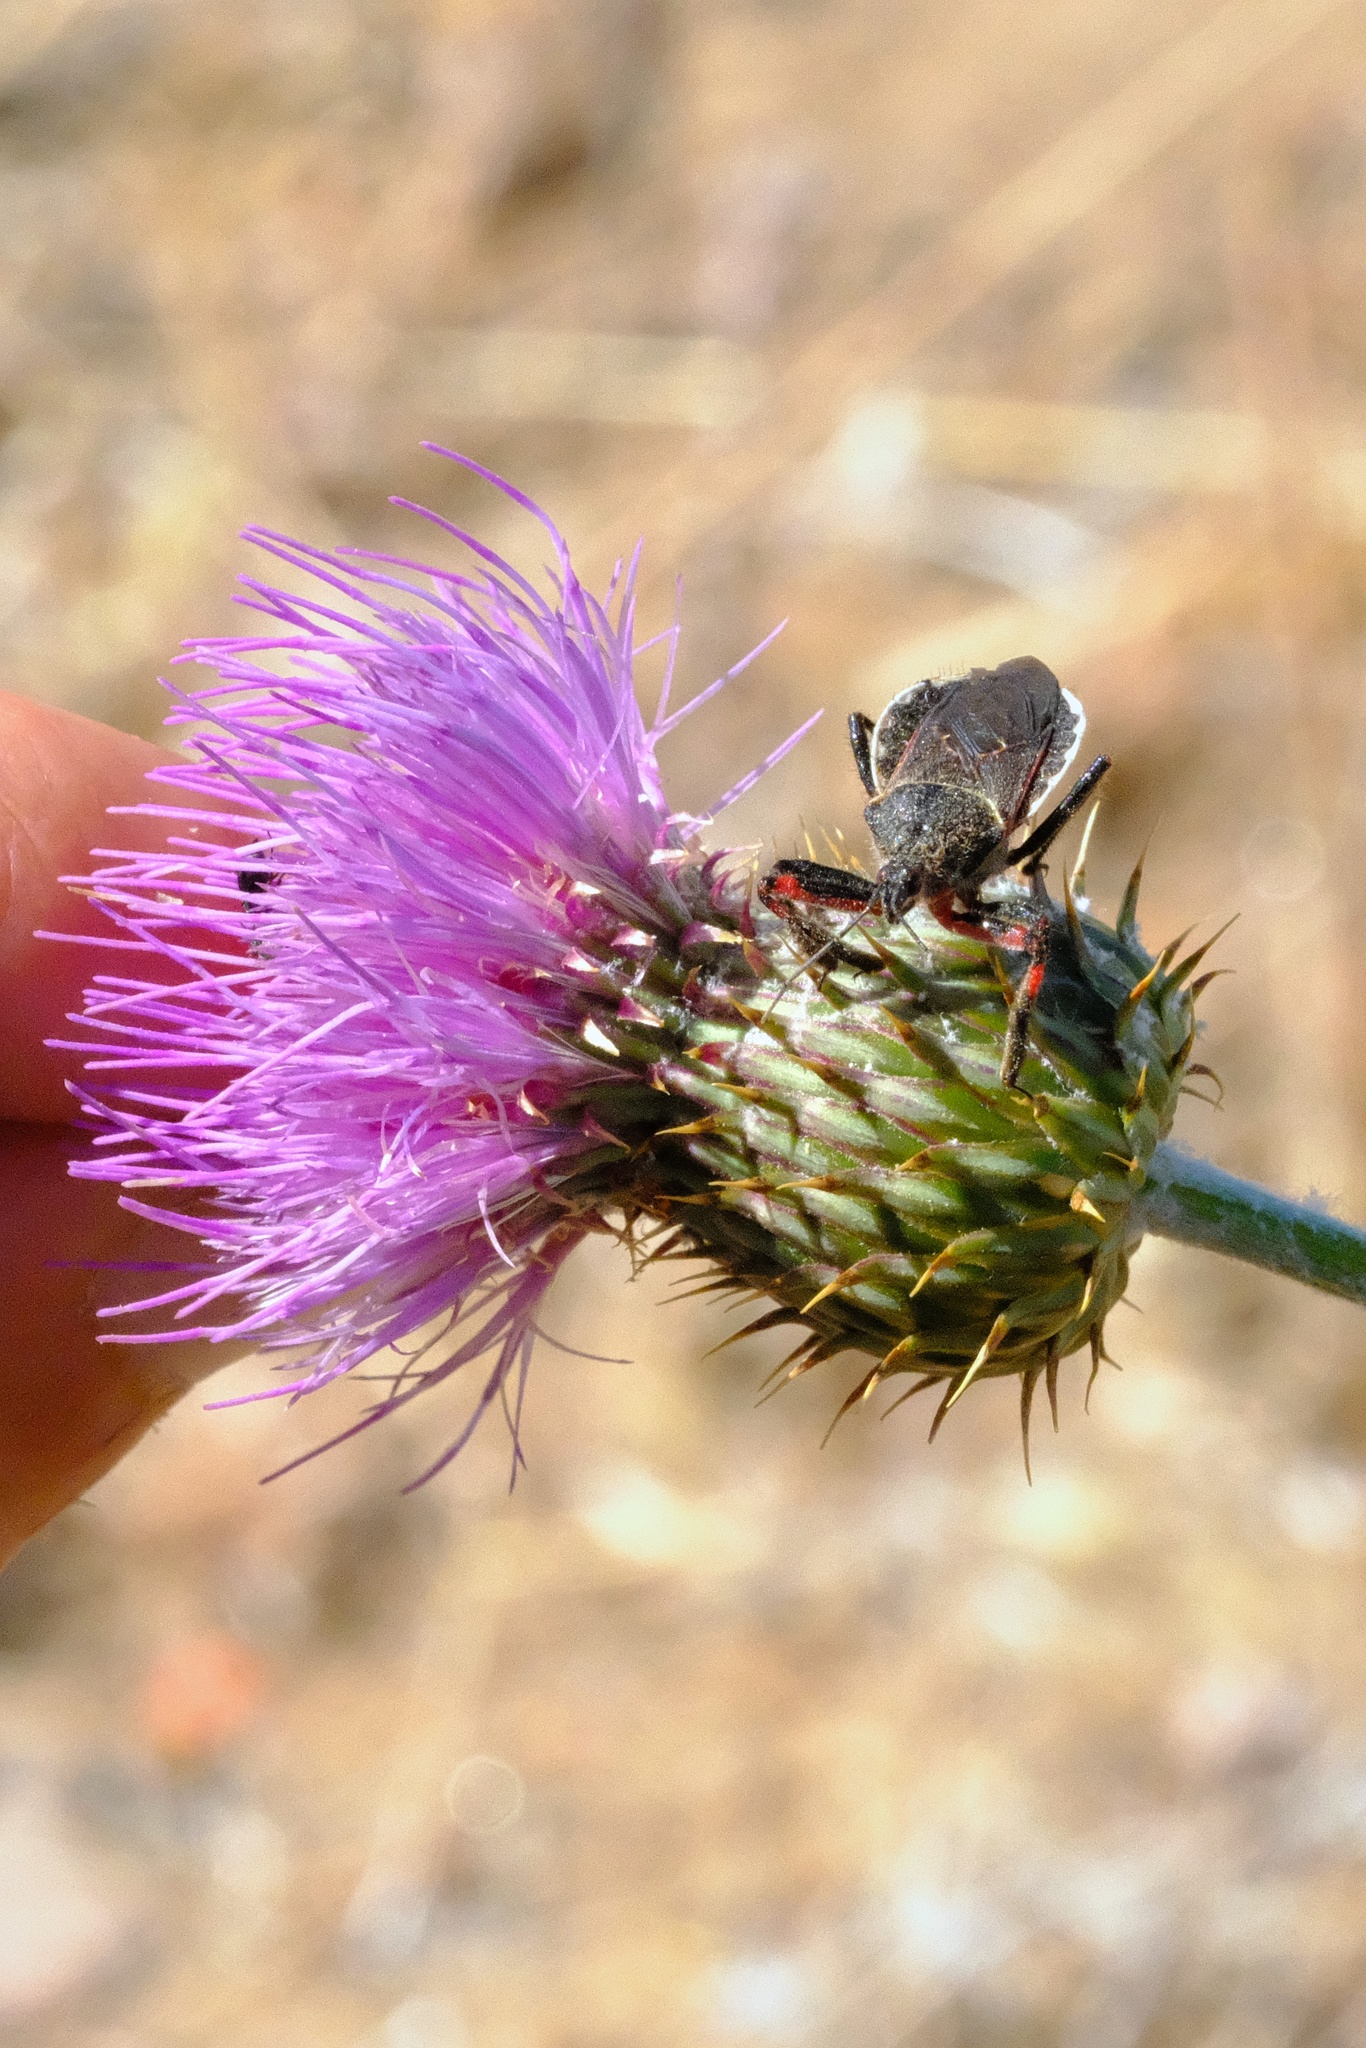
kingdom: Animalia
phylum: Arthropoda
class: Insecta
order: Hemiptera
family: Reduviidae
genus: Apiomerus
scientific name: Apiomerus californicus
